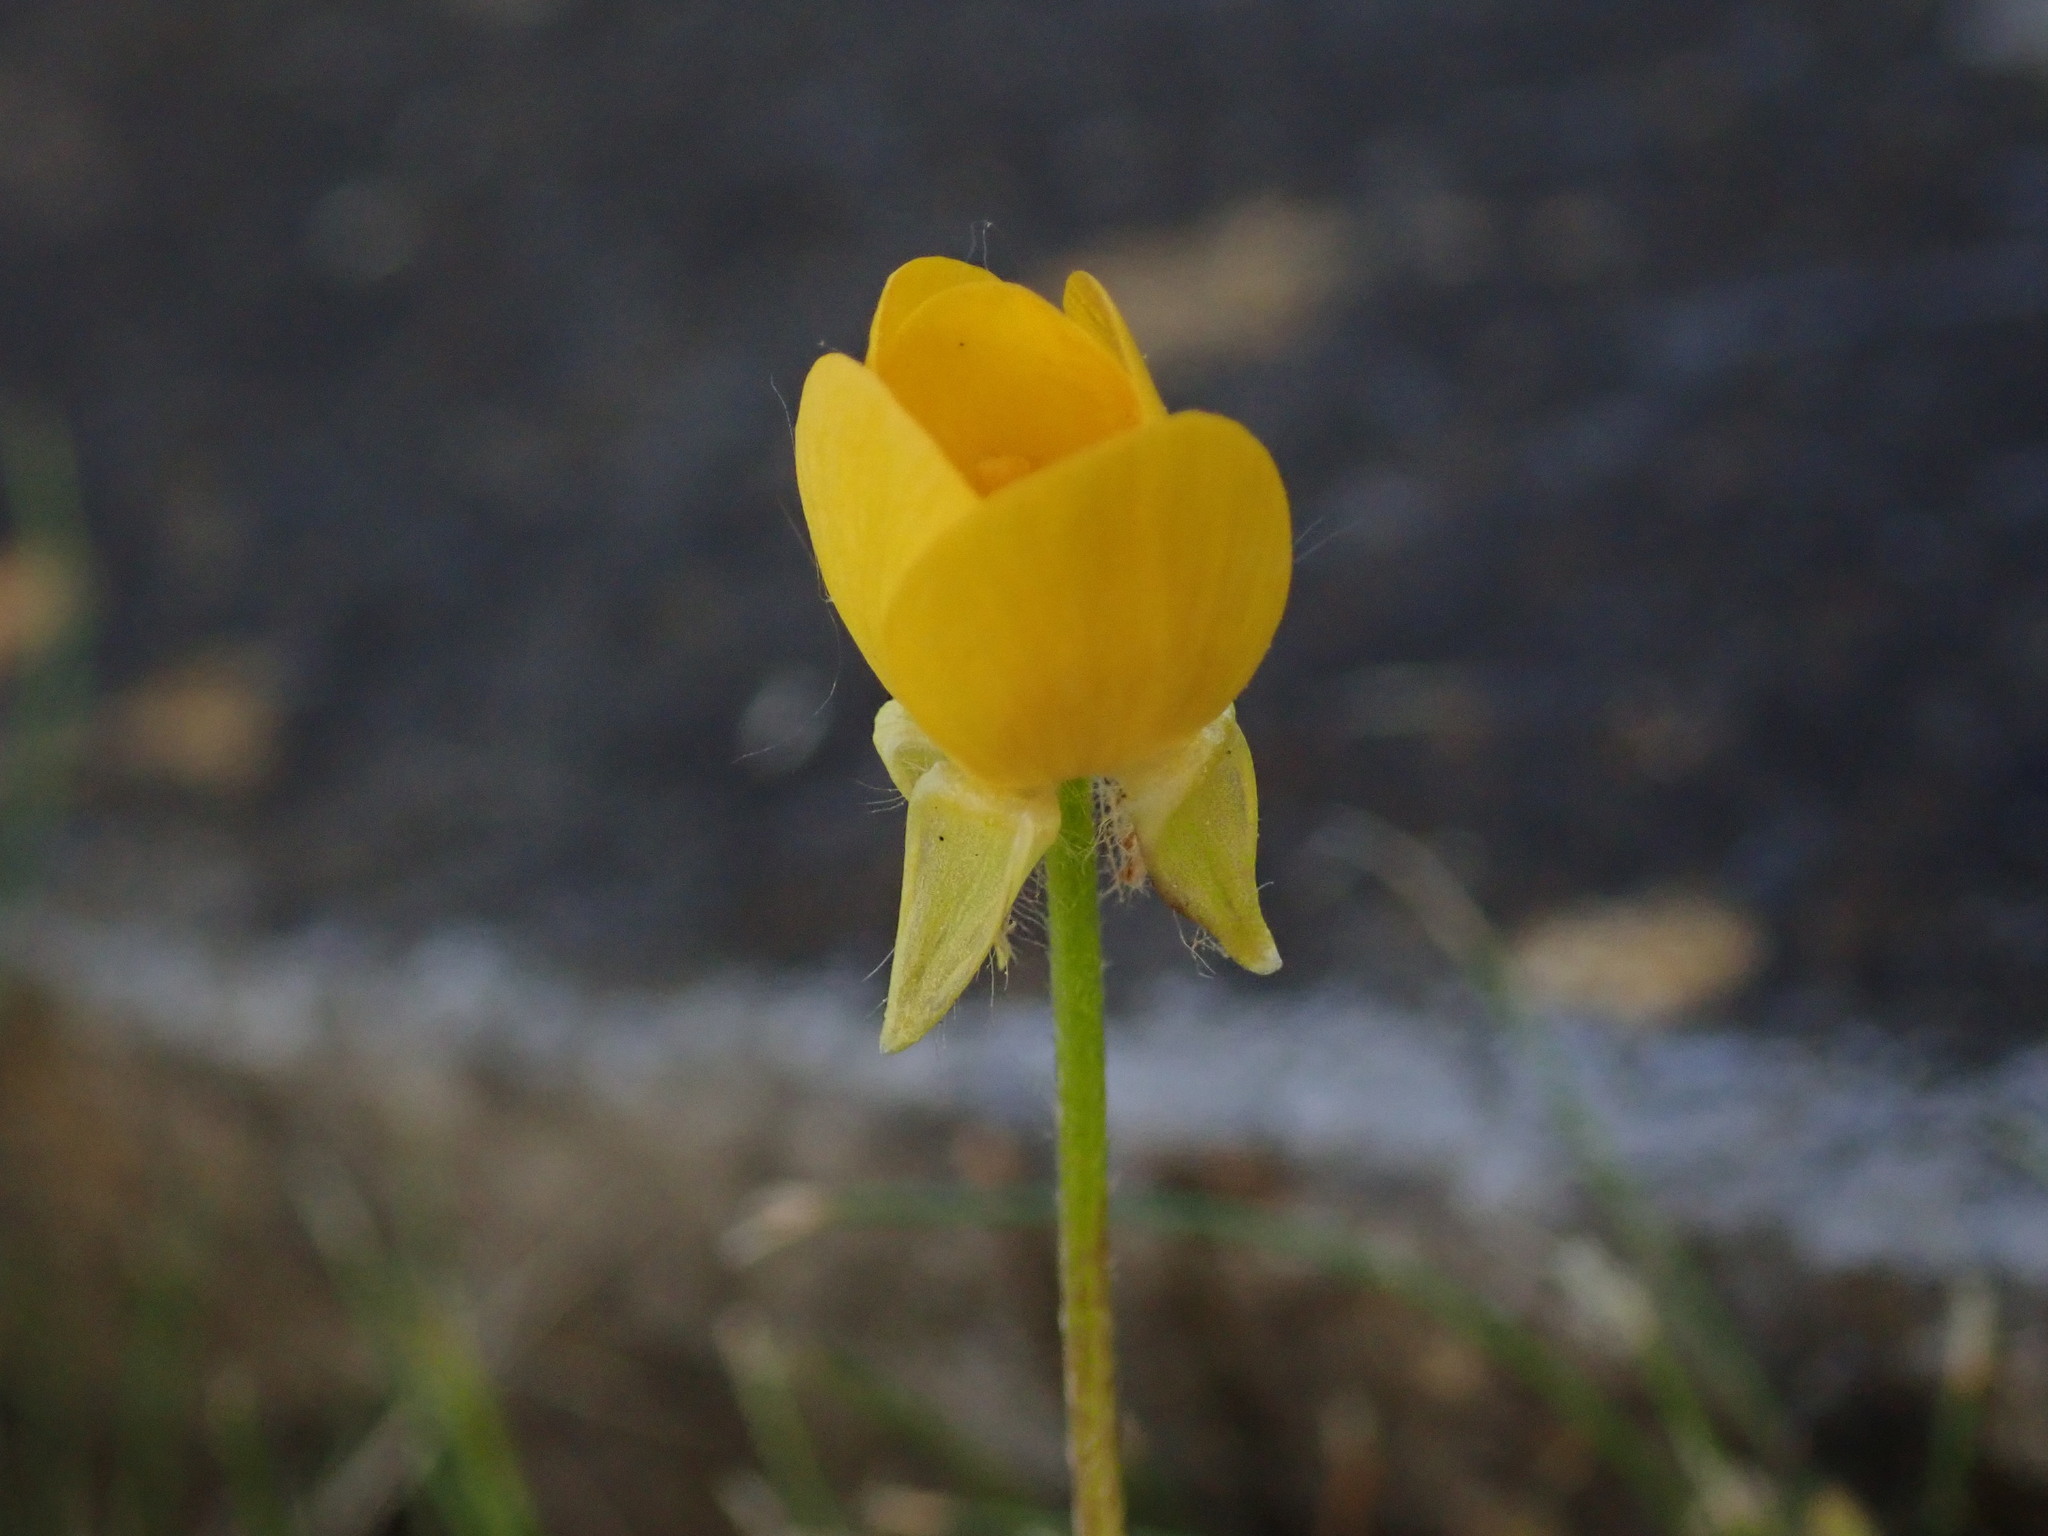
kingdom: Plantae
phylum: Tracheophyta
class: Magnoliopsida
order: Ranunculales
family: Ranunculaceae
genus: Ranunculus
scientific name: Ranunculus bulbosus
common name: Bulbous buttercup
